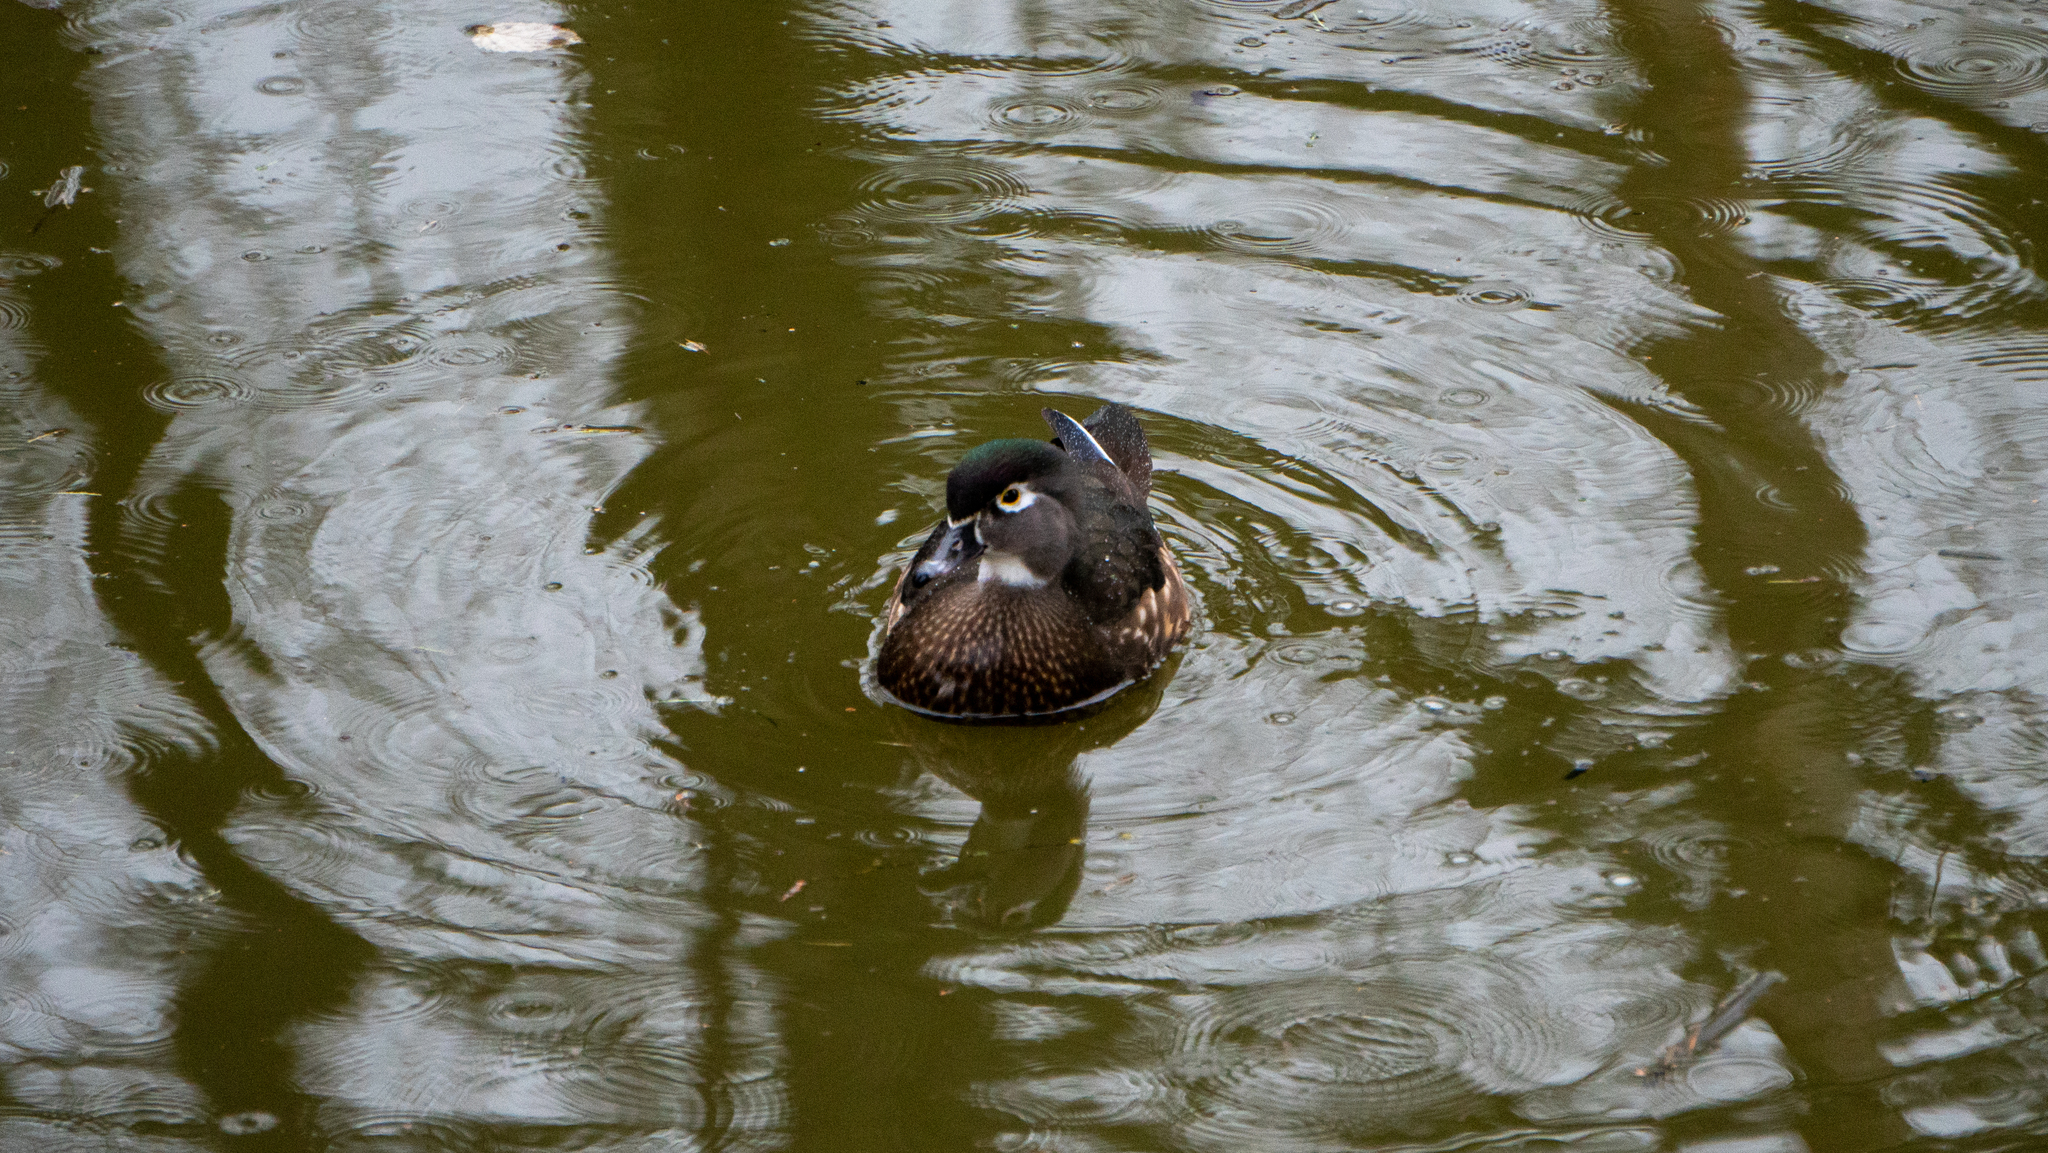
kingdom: Animalia
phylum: Chordata
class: Aves
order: Anseriformes
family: Anatidae
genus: Aix
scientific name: Aix sponsa
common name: Wood duck
